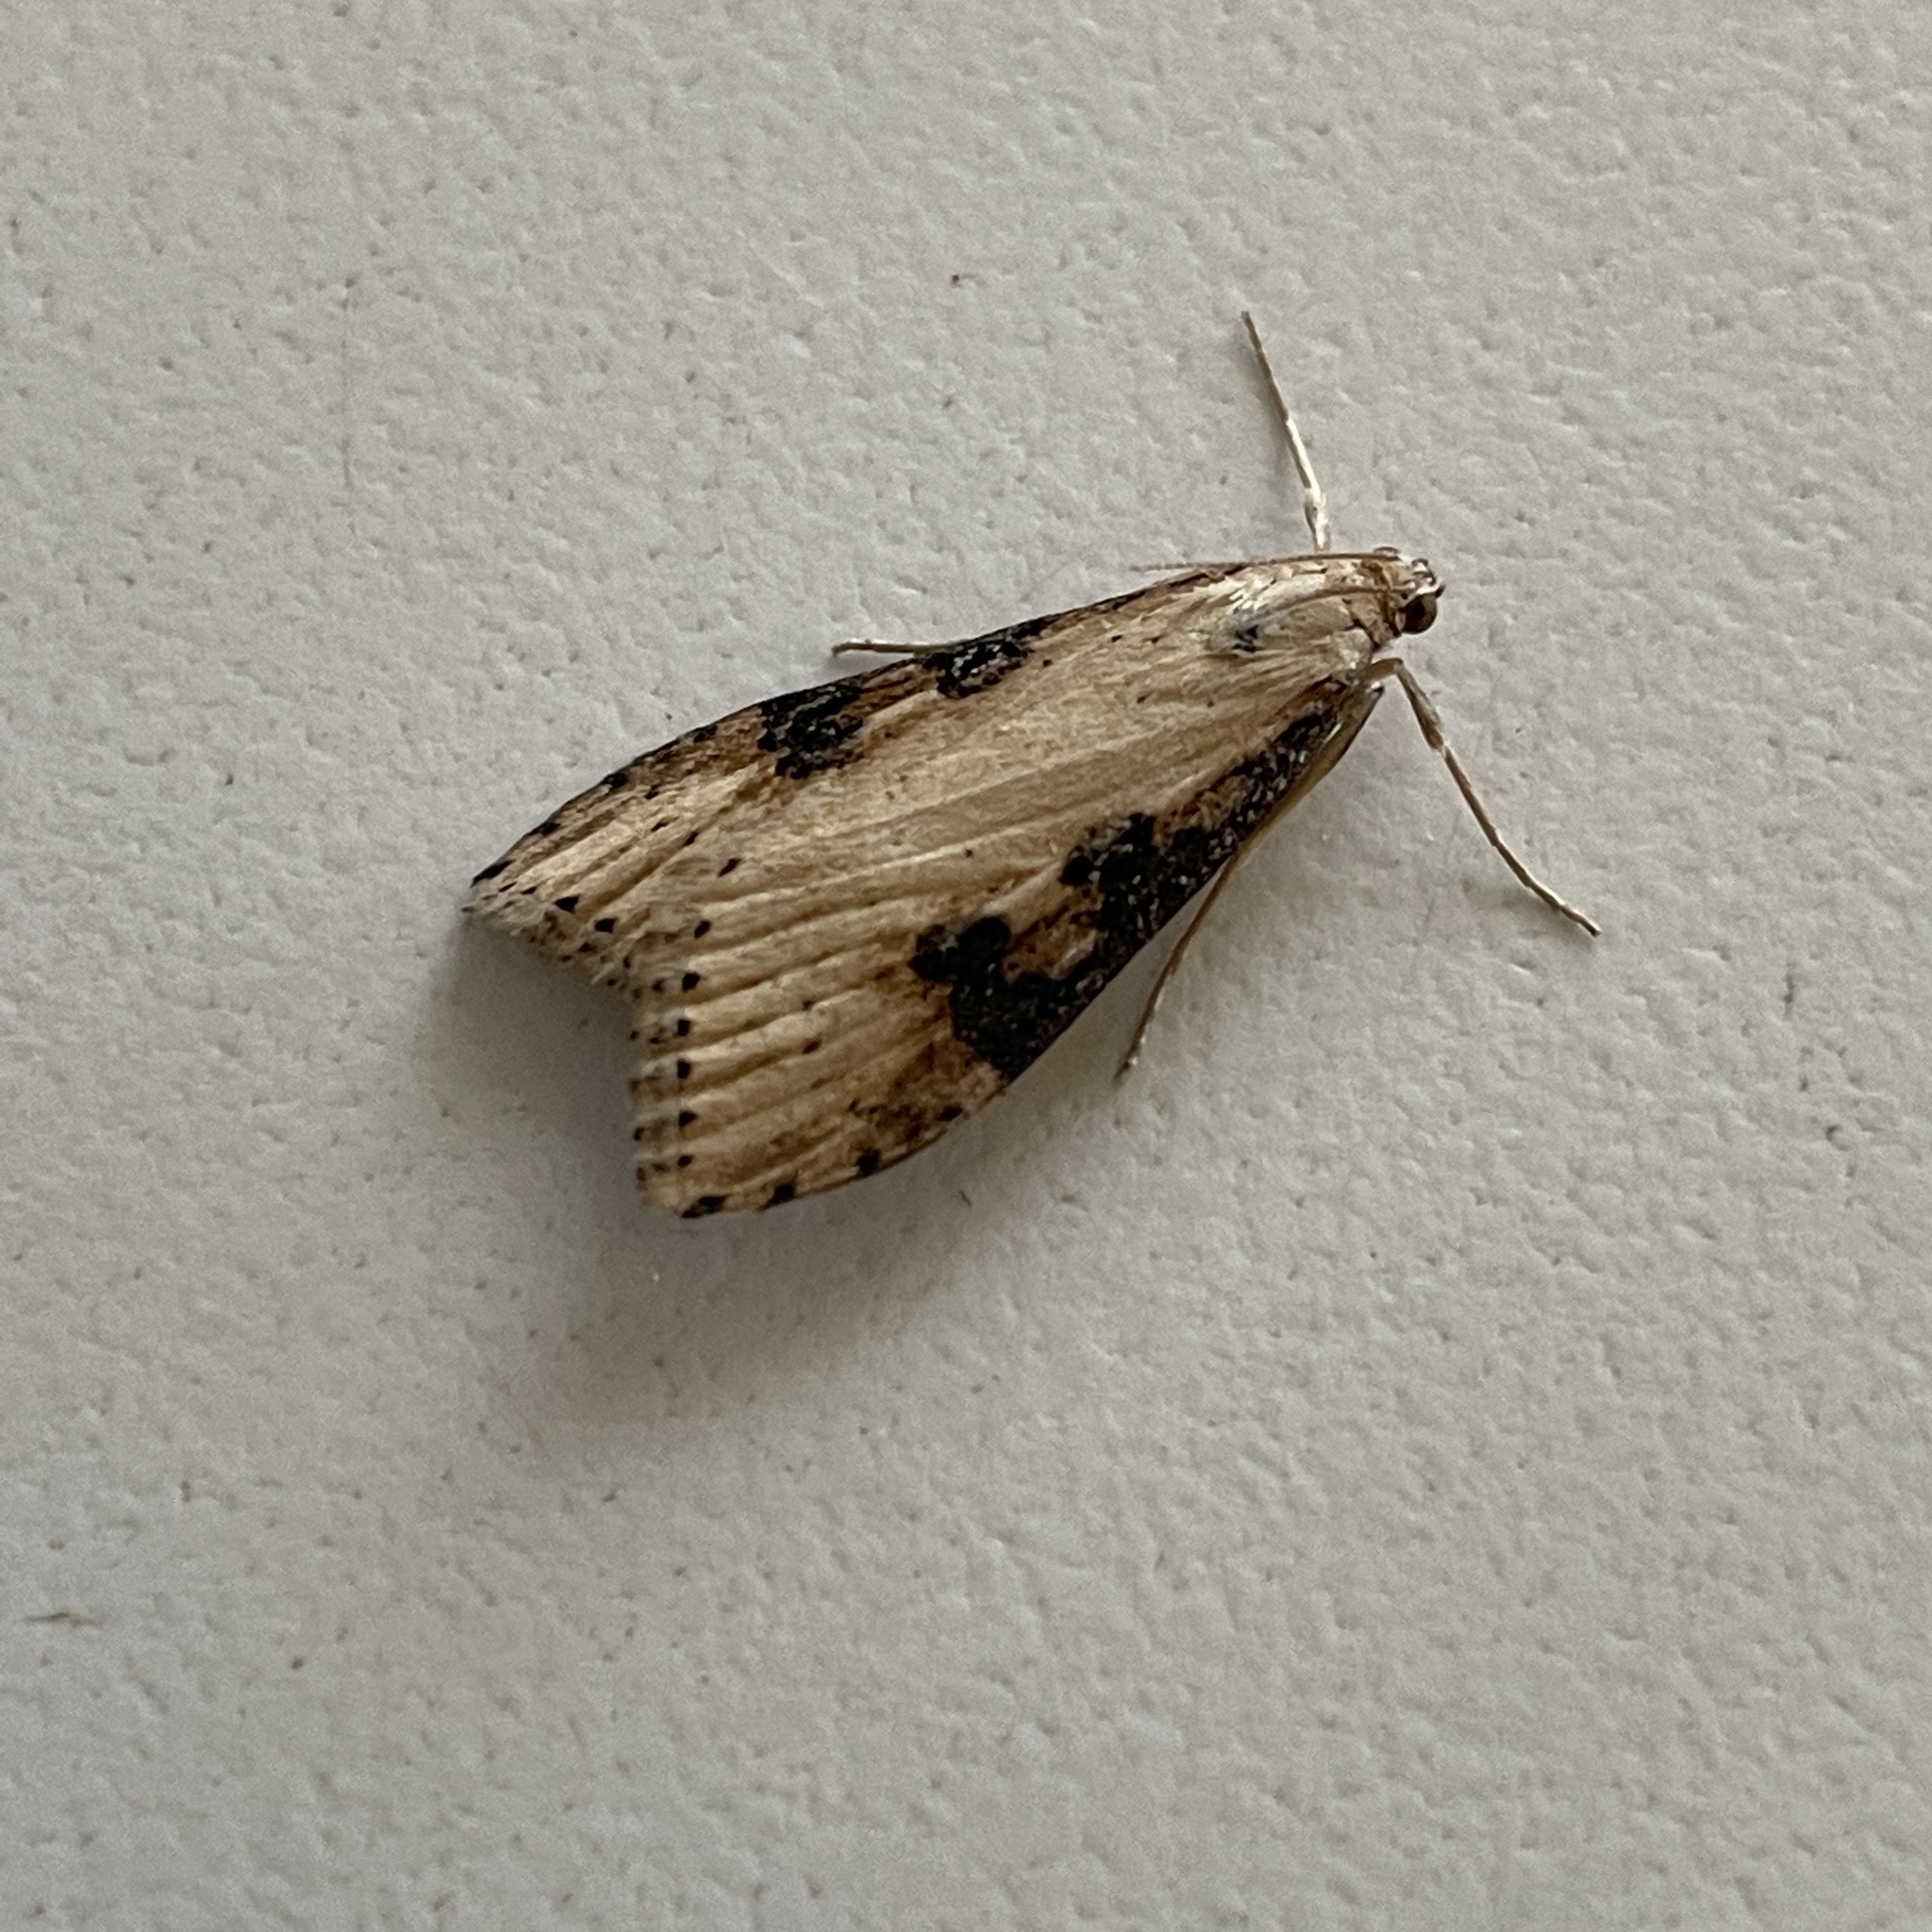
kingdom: Animalia
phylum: Arthropoda
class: Insecta
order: Lepidoptera
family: Crambidae
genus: Nomophila
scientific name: Nomophila nearctica
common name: American rush veneer
